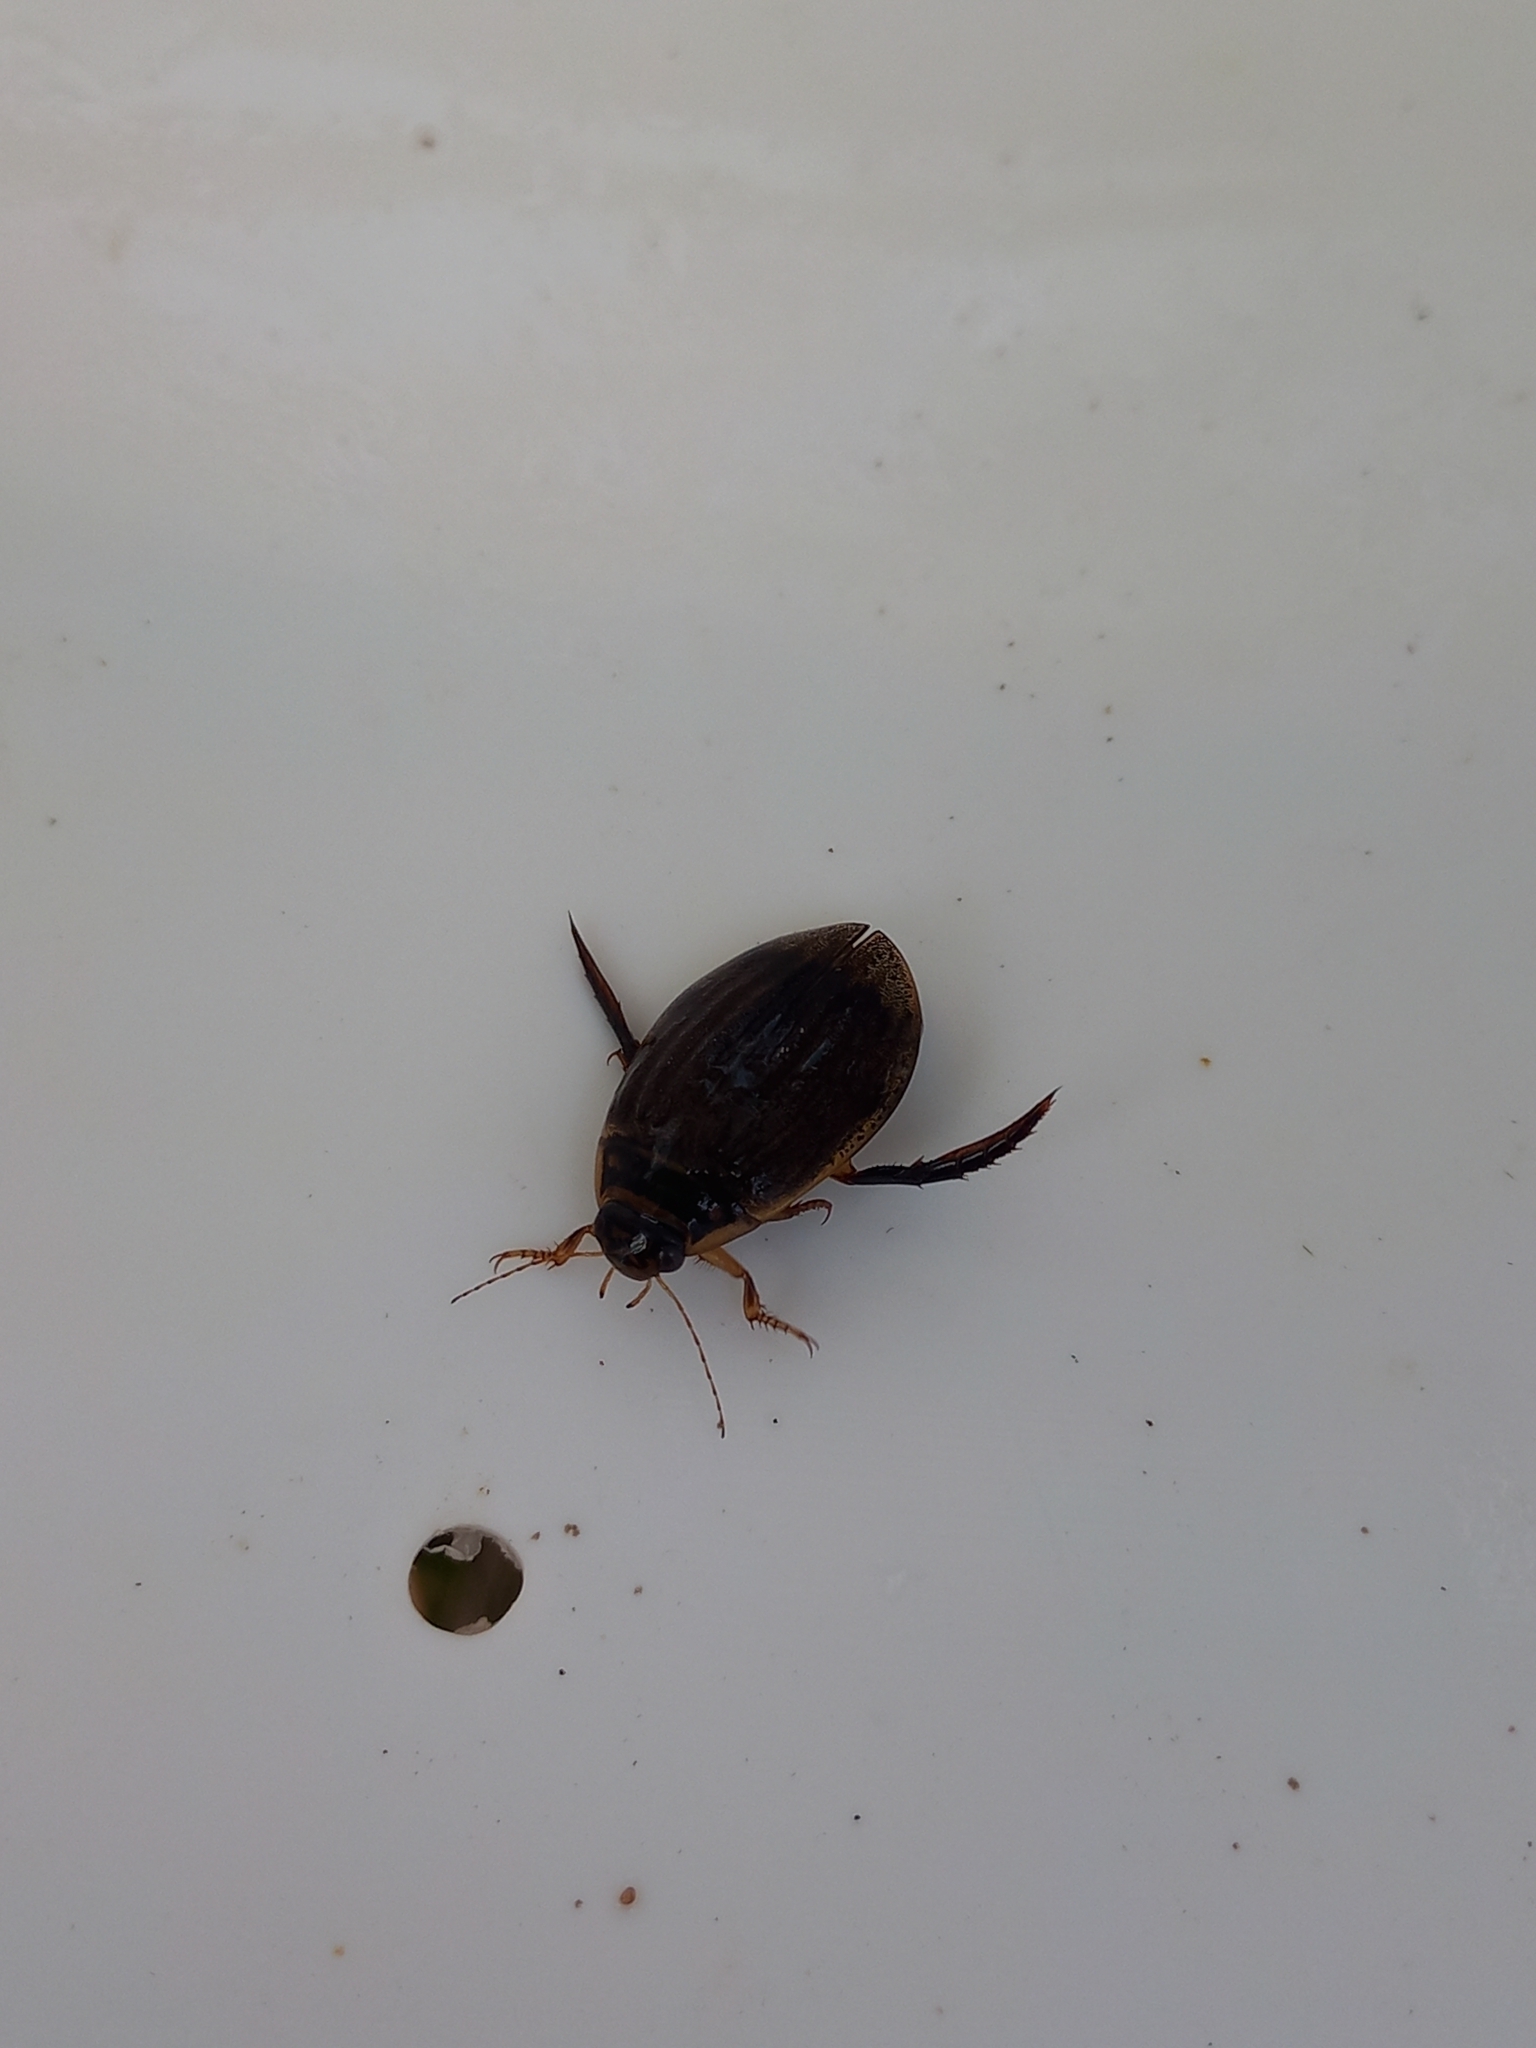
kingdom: Animalia
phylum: Arthropoda
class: Insecta
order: Coleoptera
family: Dytiscidae
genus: Acilius
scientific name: Acilius sulcatus
